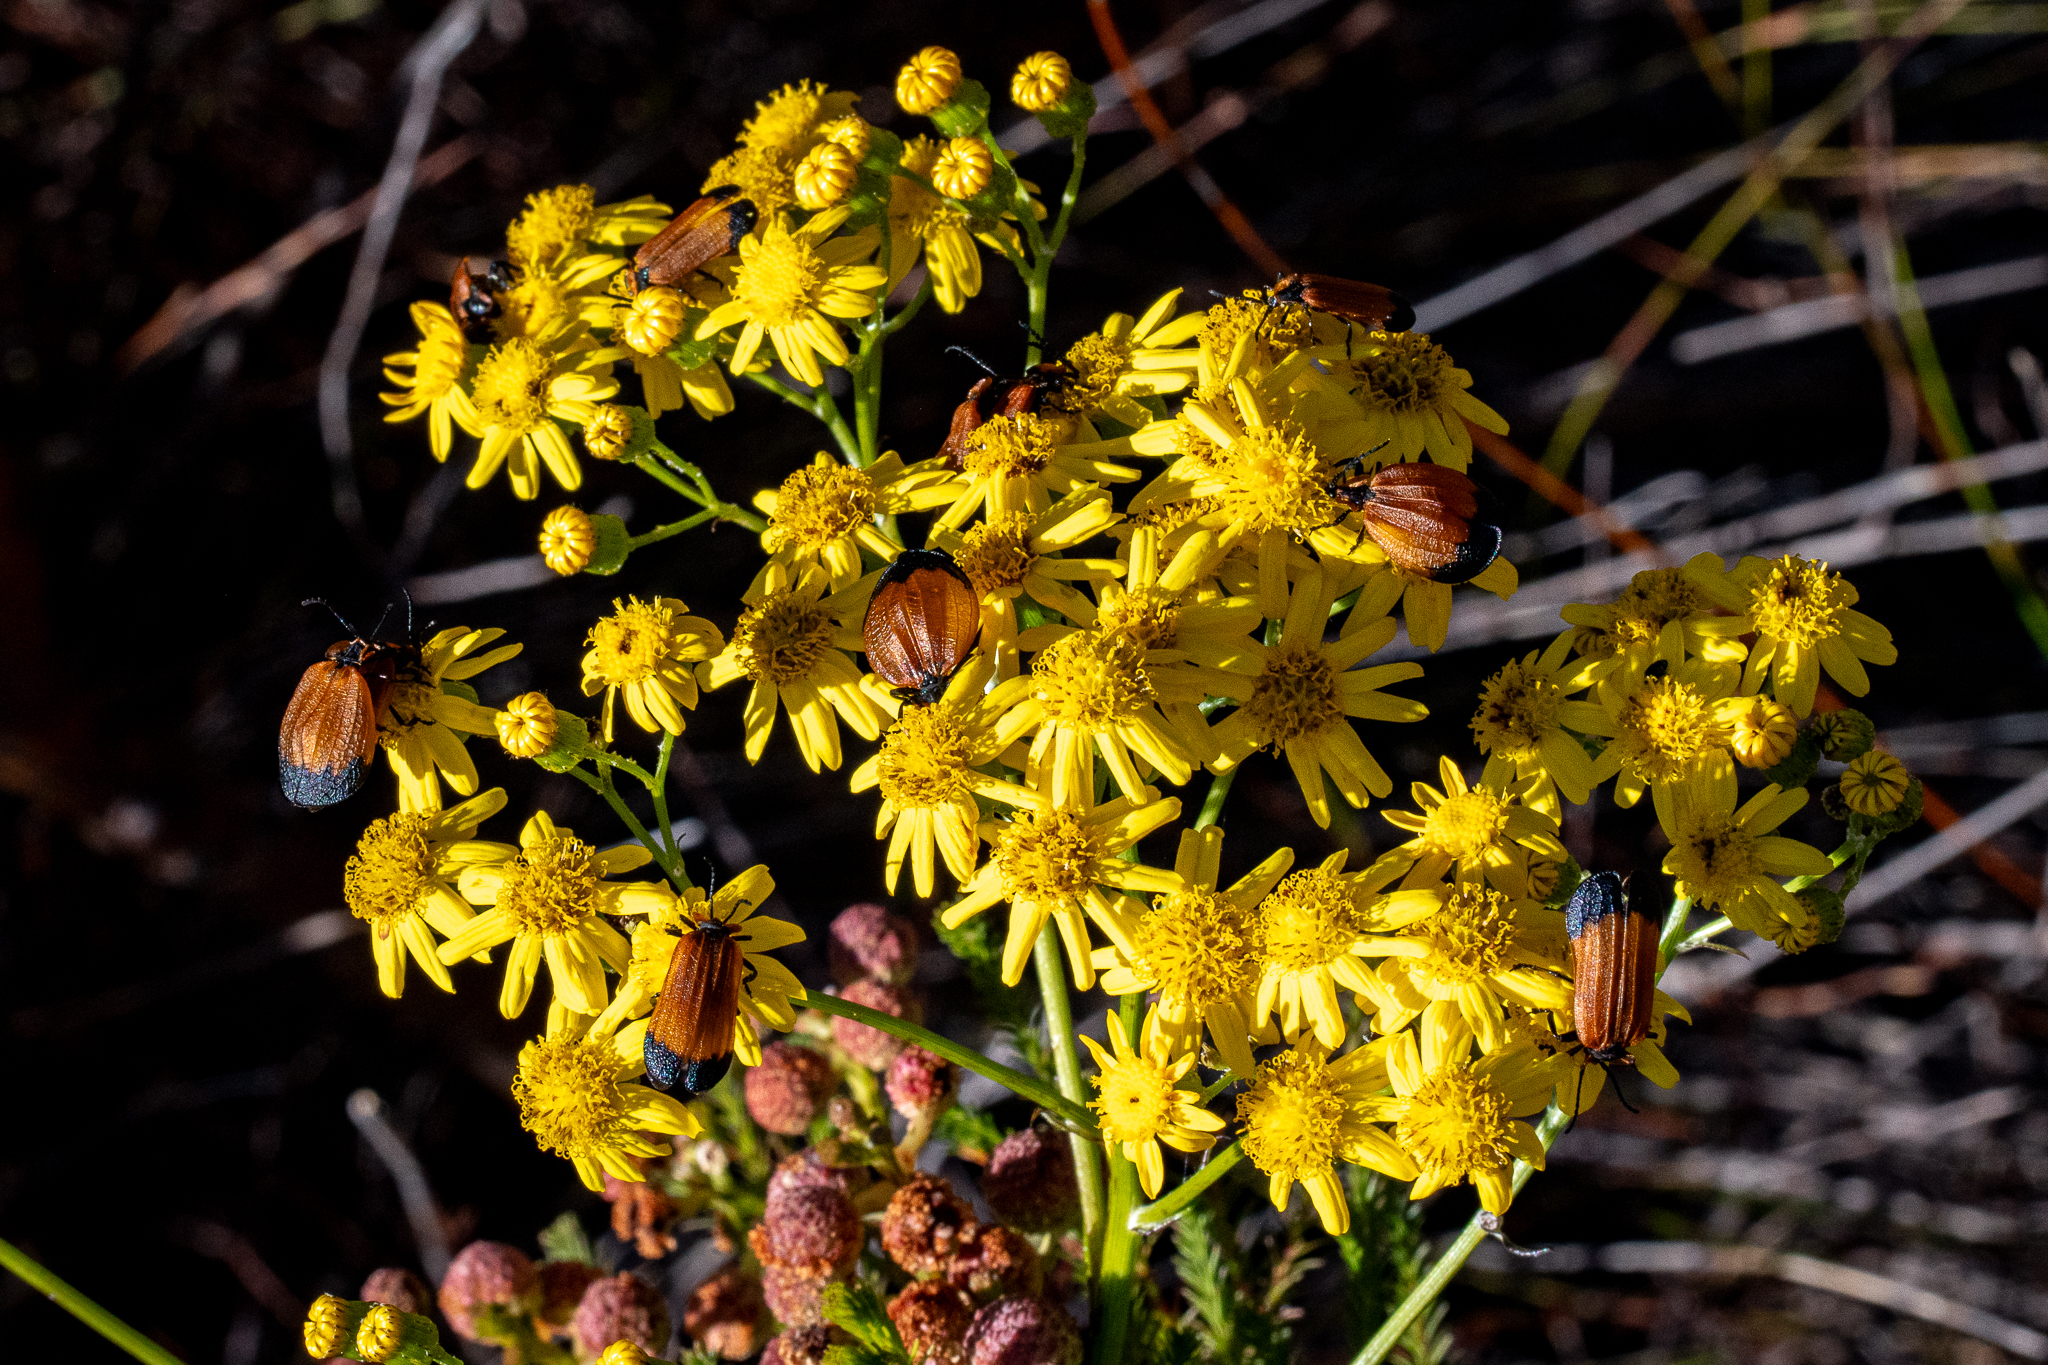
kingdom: Plantae
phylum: Tracheophyta
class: Magnoliopsida
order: Asterales
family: Asteraceae
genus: Senecio
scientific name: Senecio pterophorus
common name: Shoddy ragwort
